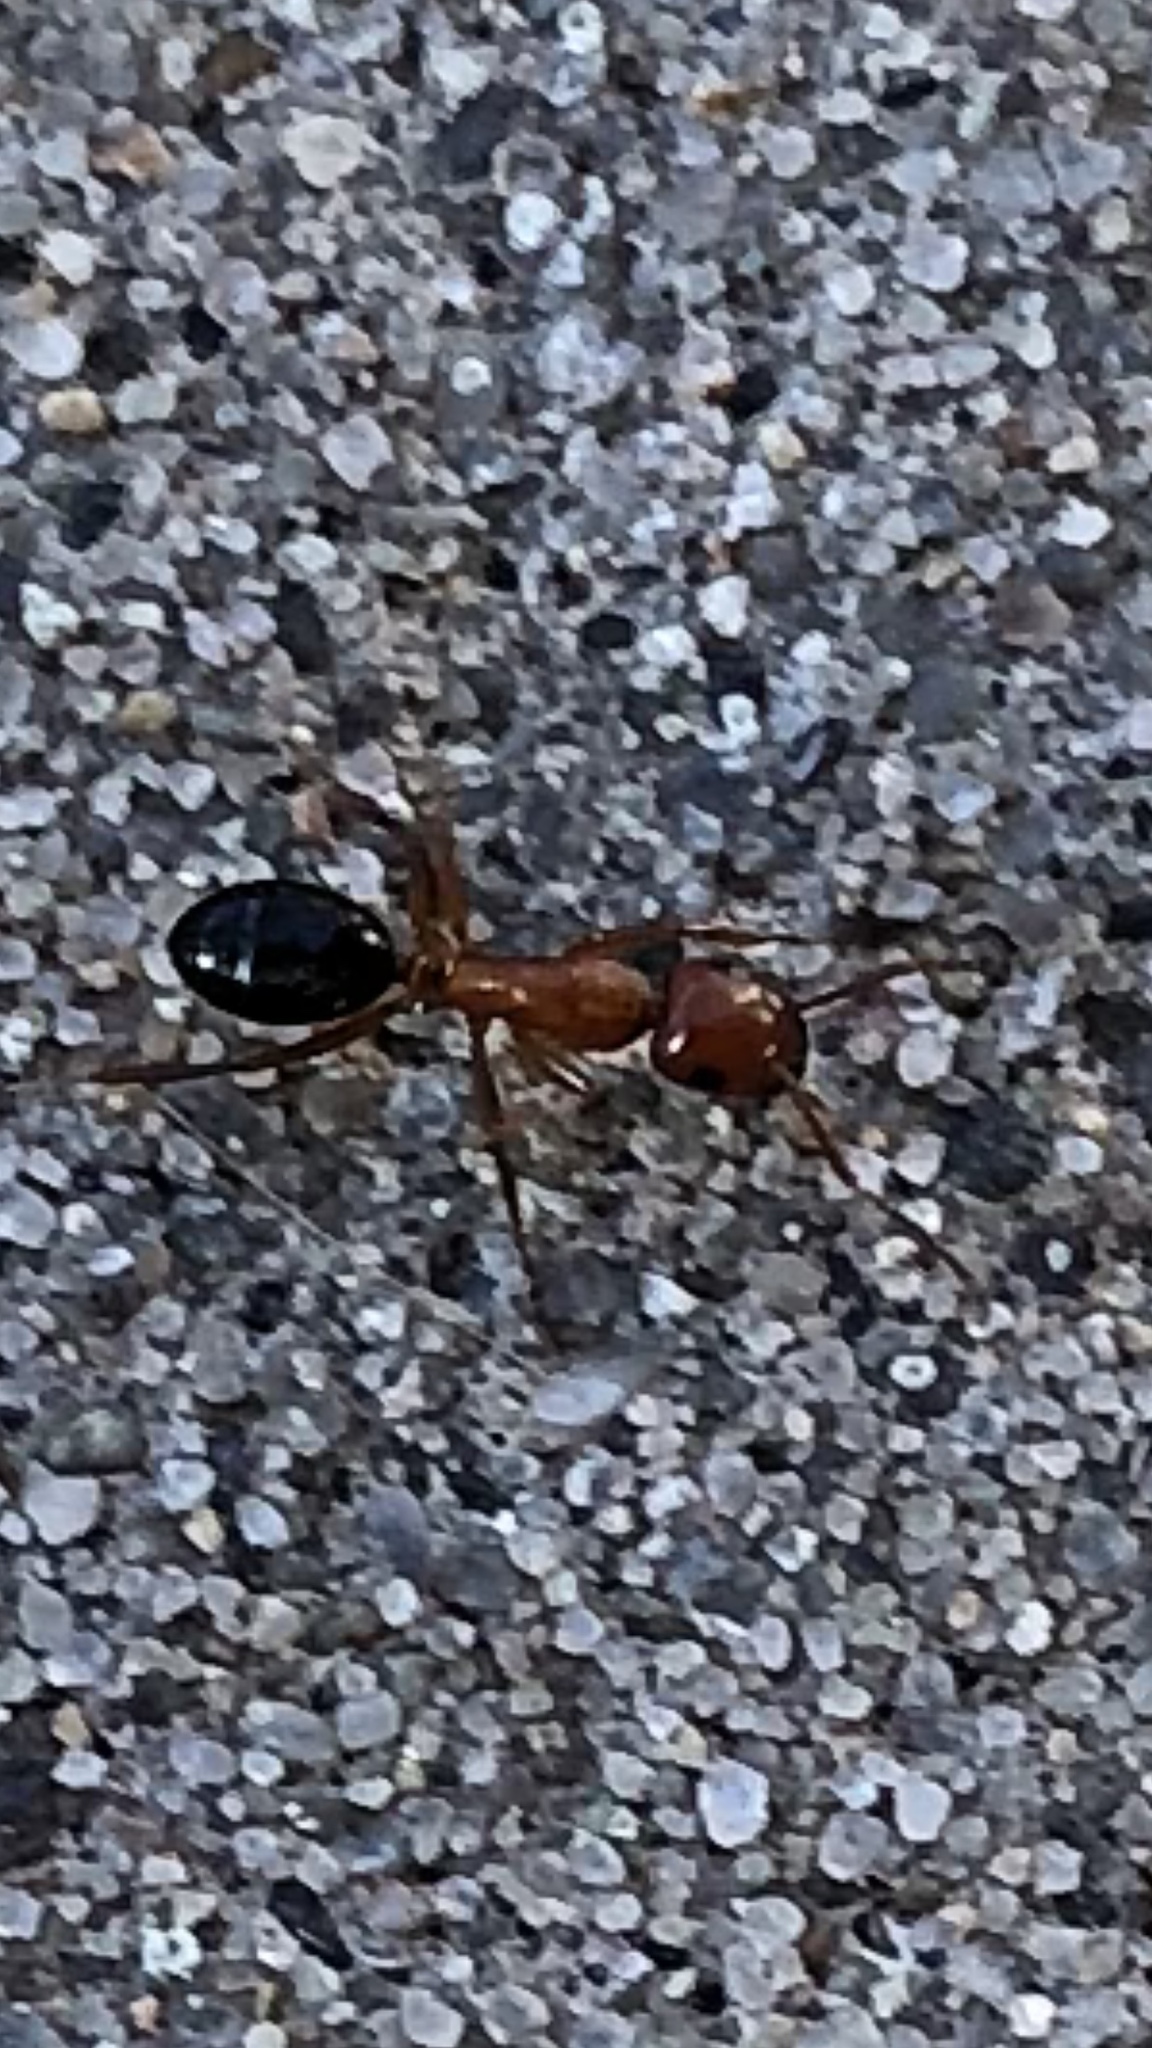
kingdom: Animalia
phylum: Arthropoda
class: Insecta
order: Hymenoptera
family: Formicidae
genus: Camponotus
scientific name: Camponotus decipiens
